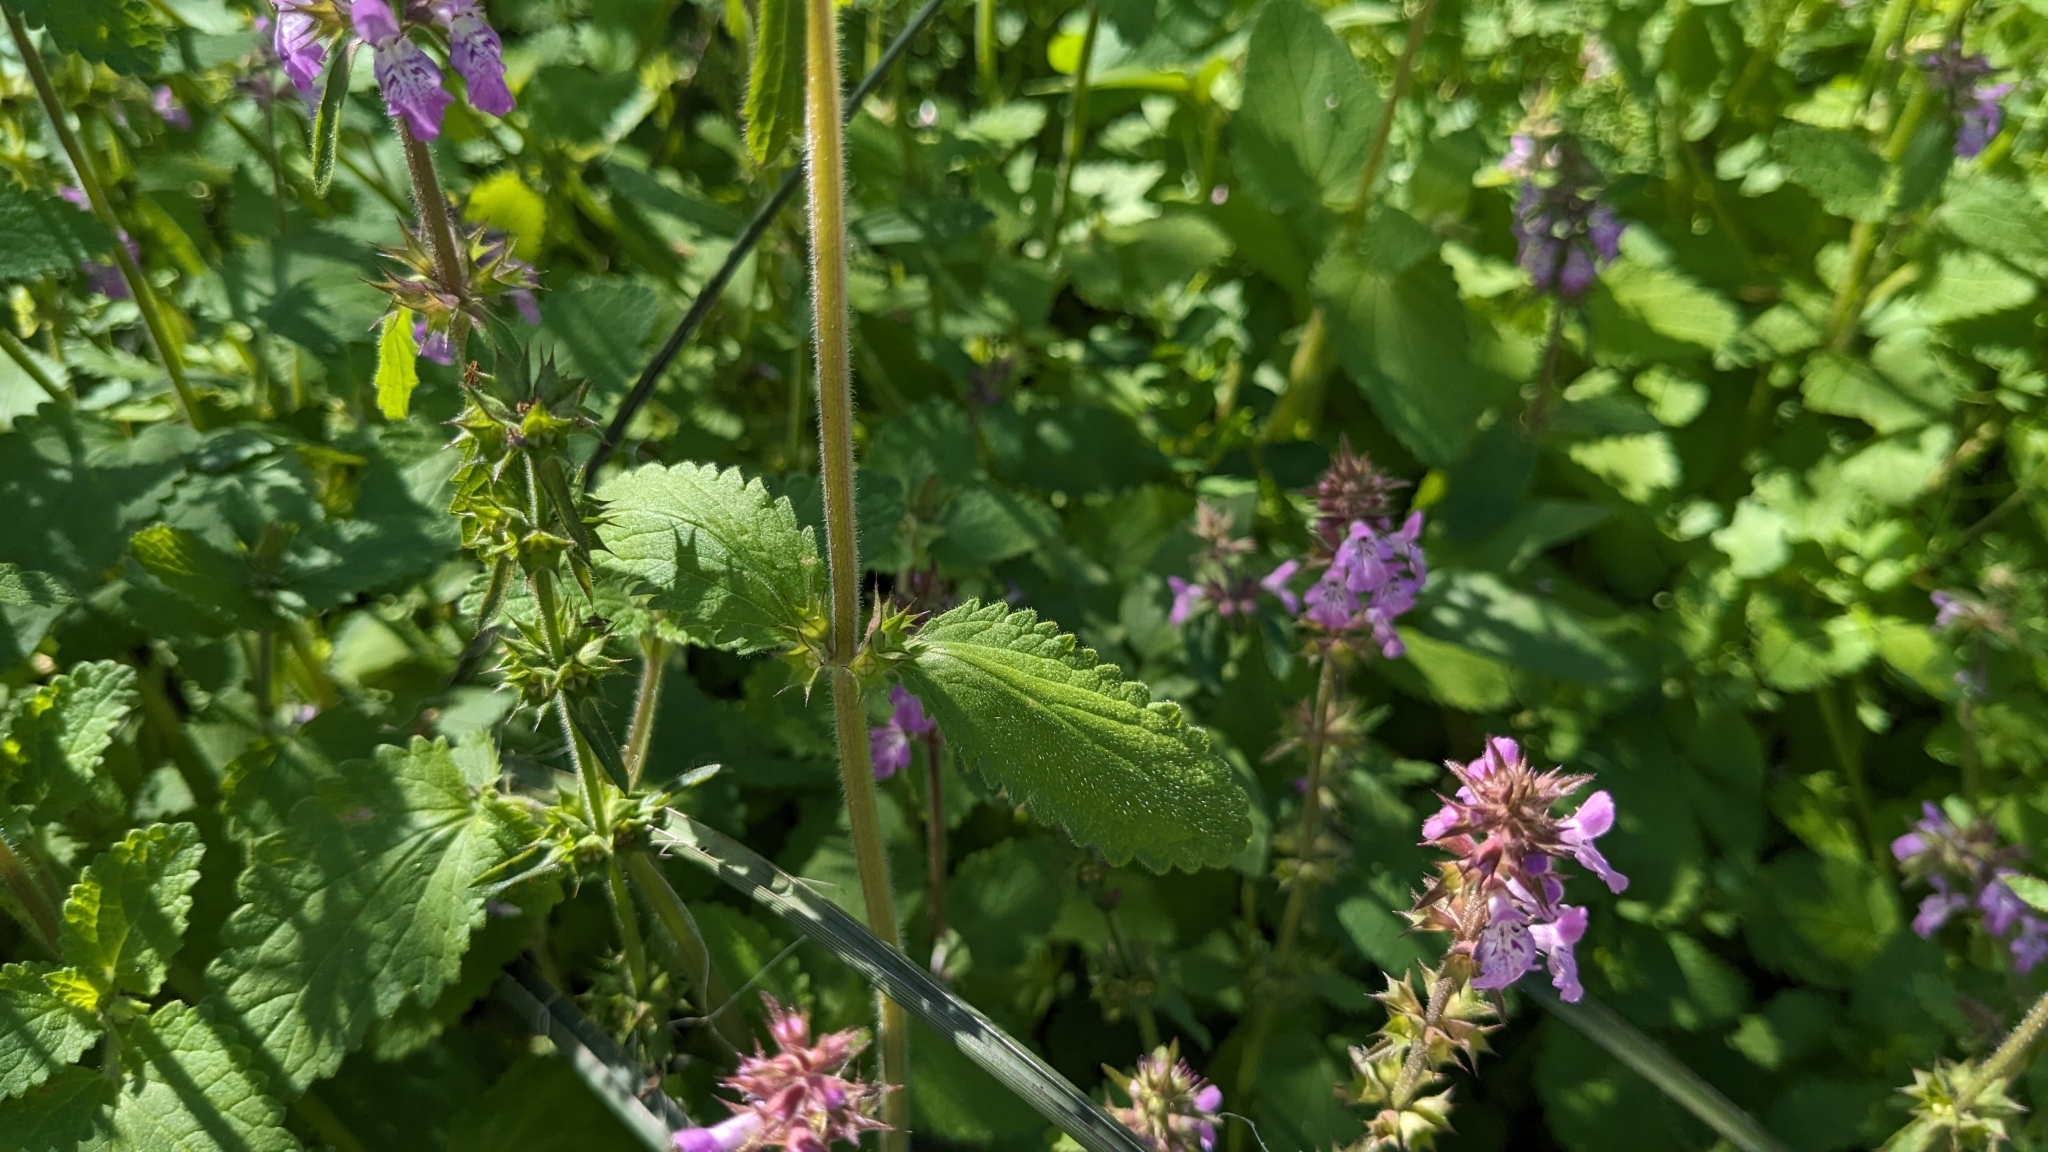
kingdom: Plantae
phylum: Tracheophyta
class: Magnoliopsida
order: Lamiales
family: Lamiaceae
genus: Stachys
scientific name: Stachys drummondii
